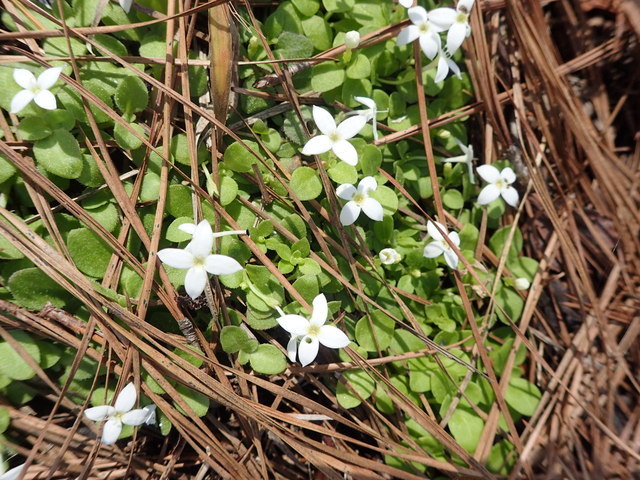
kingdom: Plantae
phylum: Tracheophyta
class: Magnoliopsida
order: Gentianales
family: Rubiaceae
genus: Houstonia
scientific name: Houstonia procumbens
